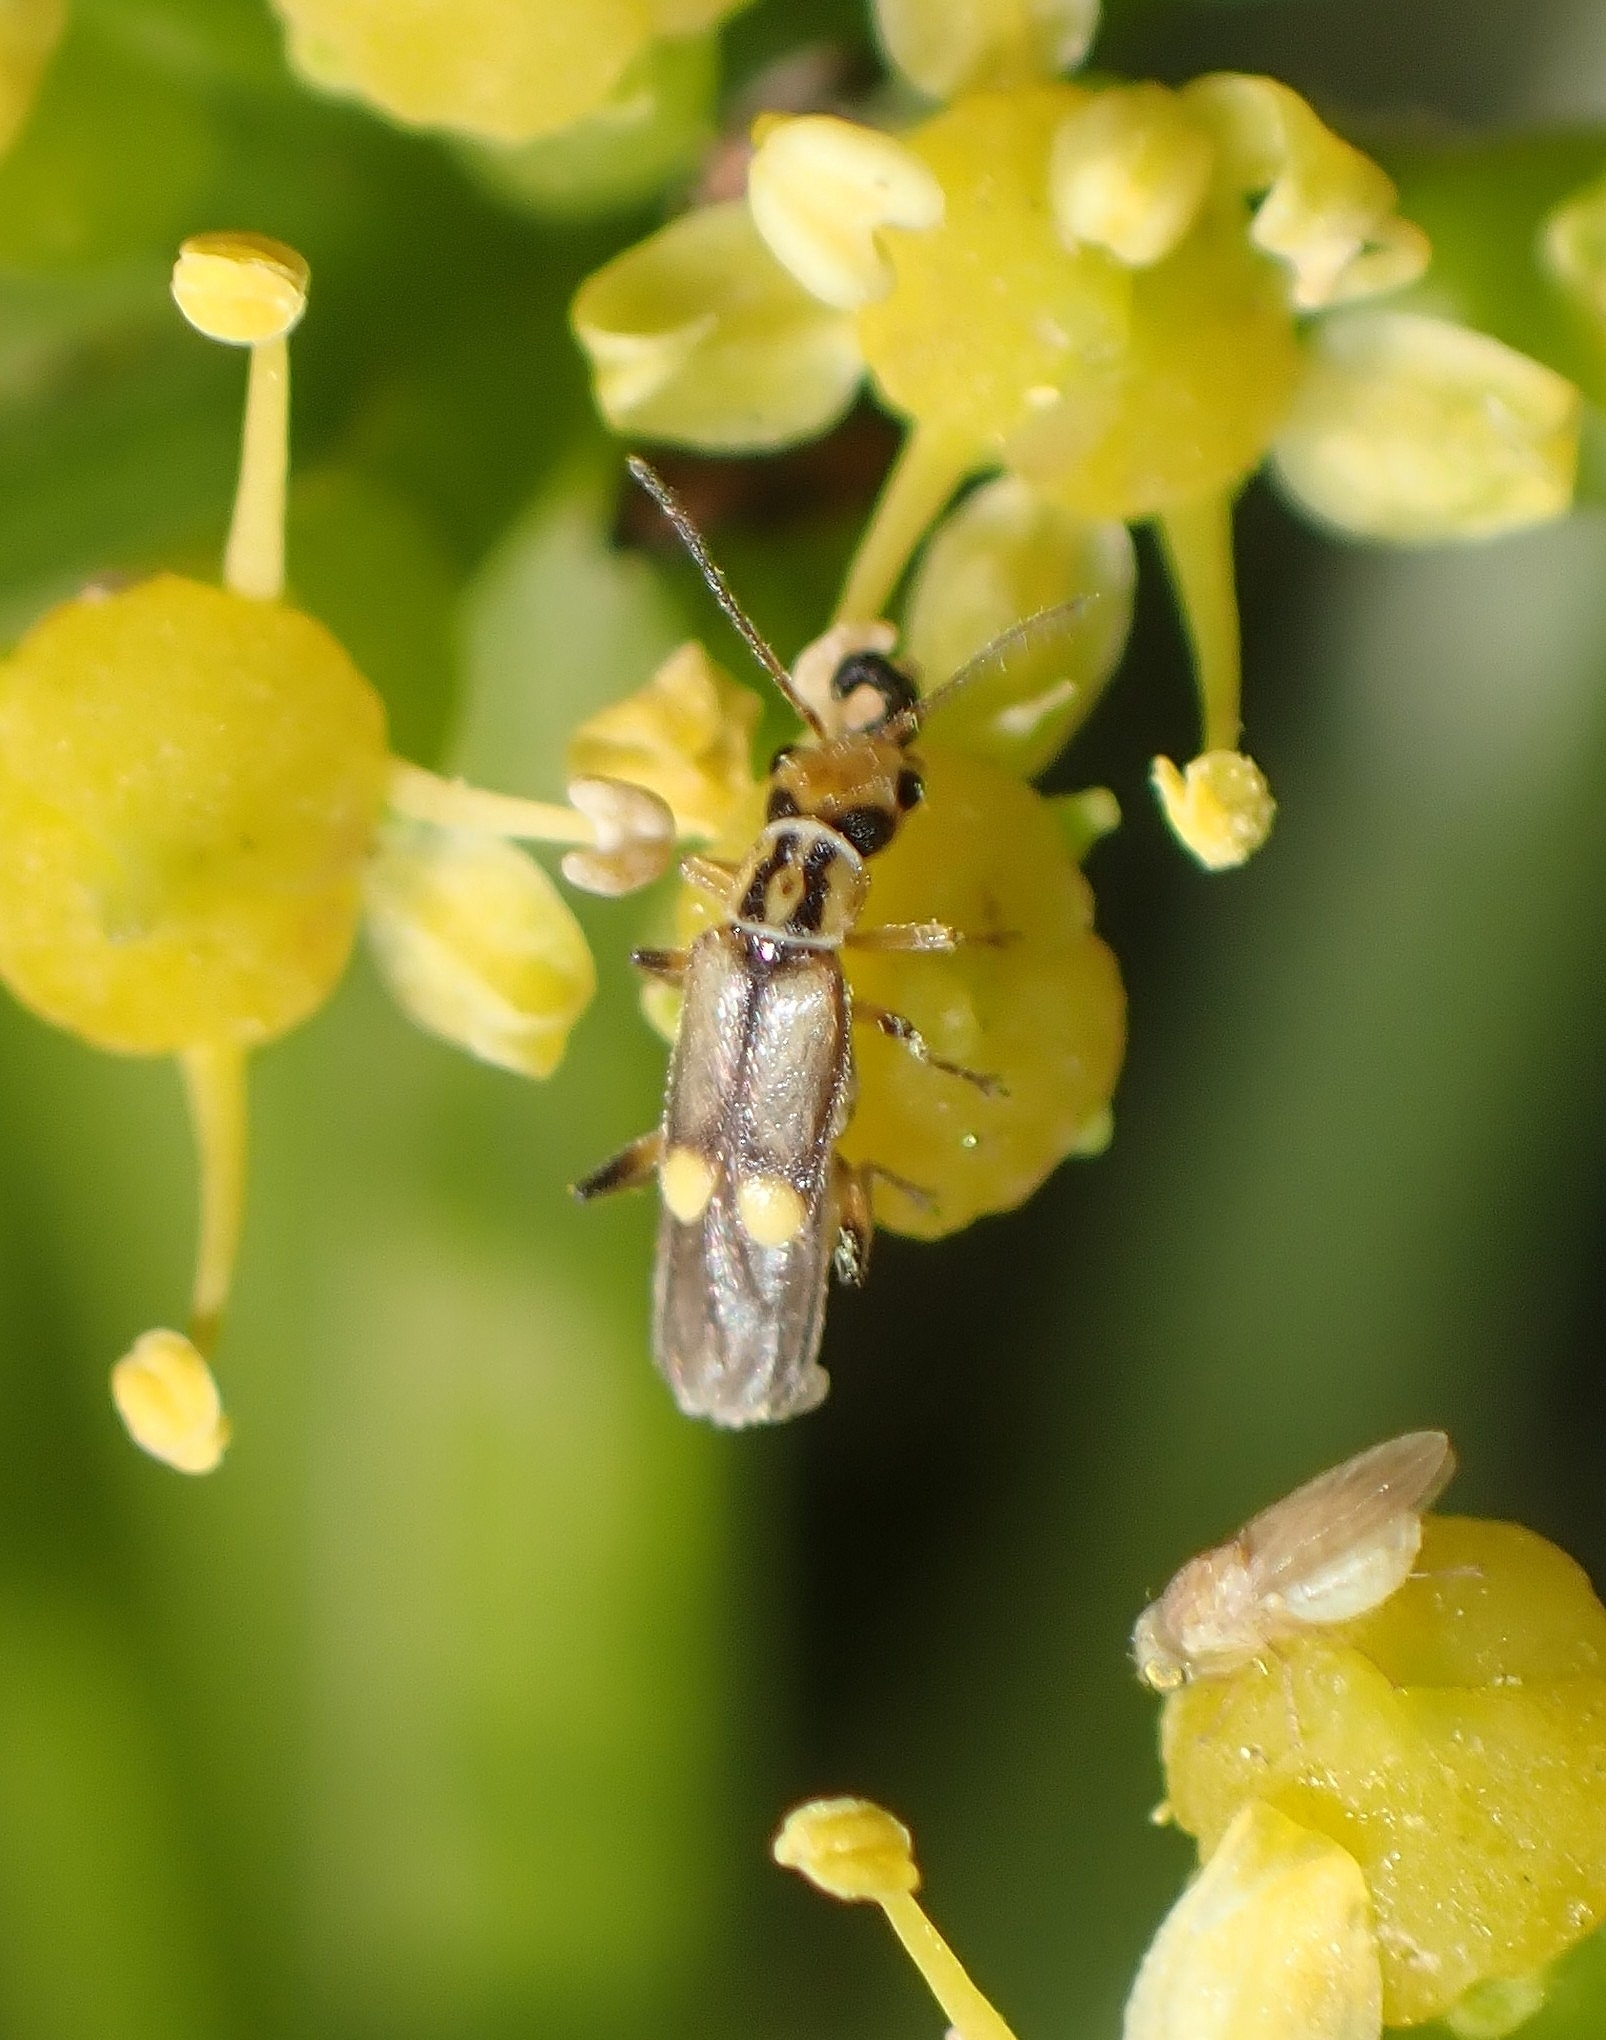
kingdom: Animalia
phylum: Arthropoda
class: Insecta
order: Coleoptera
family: Cantharidae
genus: Malthinus
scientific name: Malthinus mutabilis
